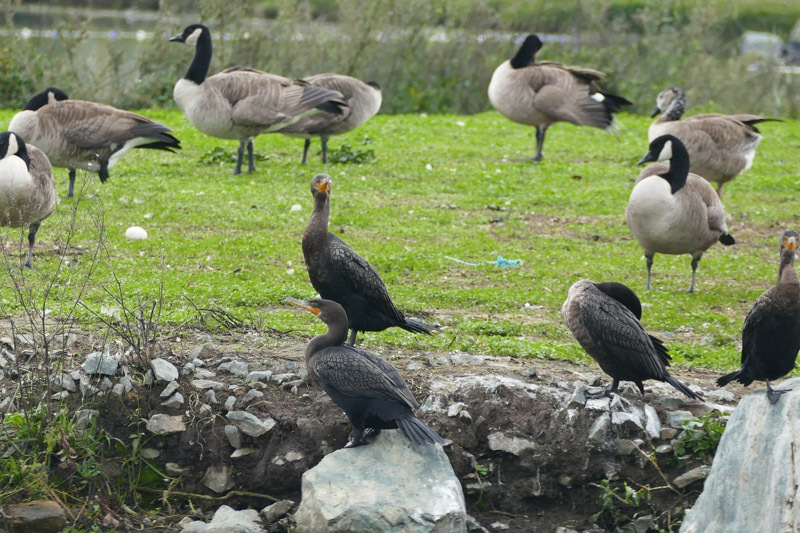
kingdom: Animalia
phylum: Chordata
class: Aves
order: Suliformes
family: Phalacrocoracidae
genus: Phalacrocorax
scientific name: Phalacrocorax auritus
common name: Double-crested cormorant
